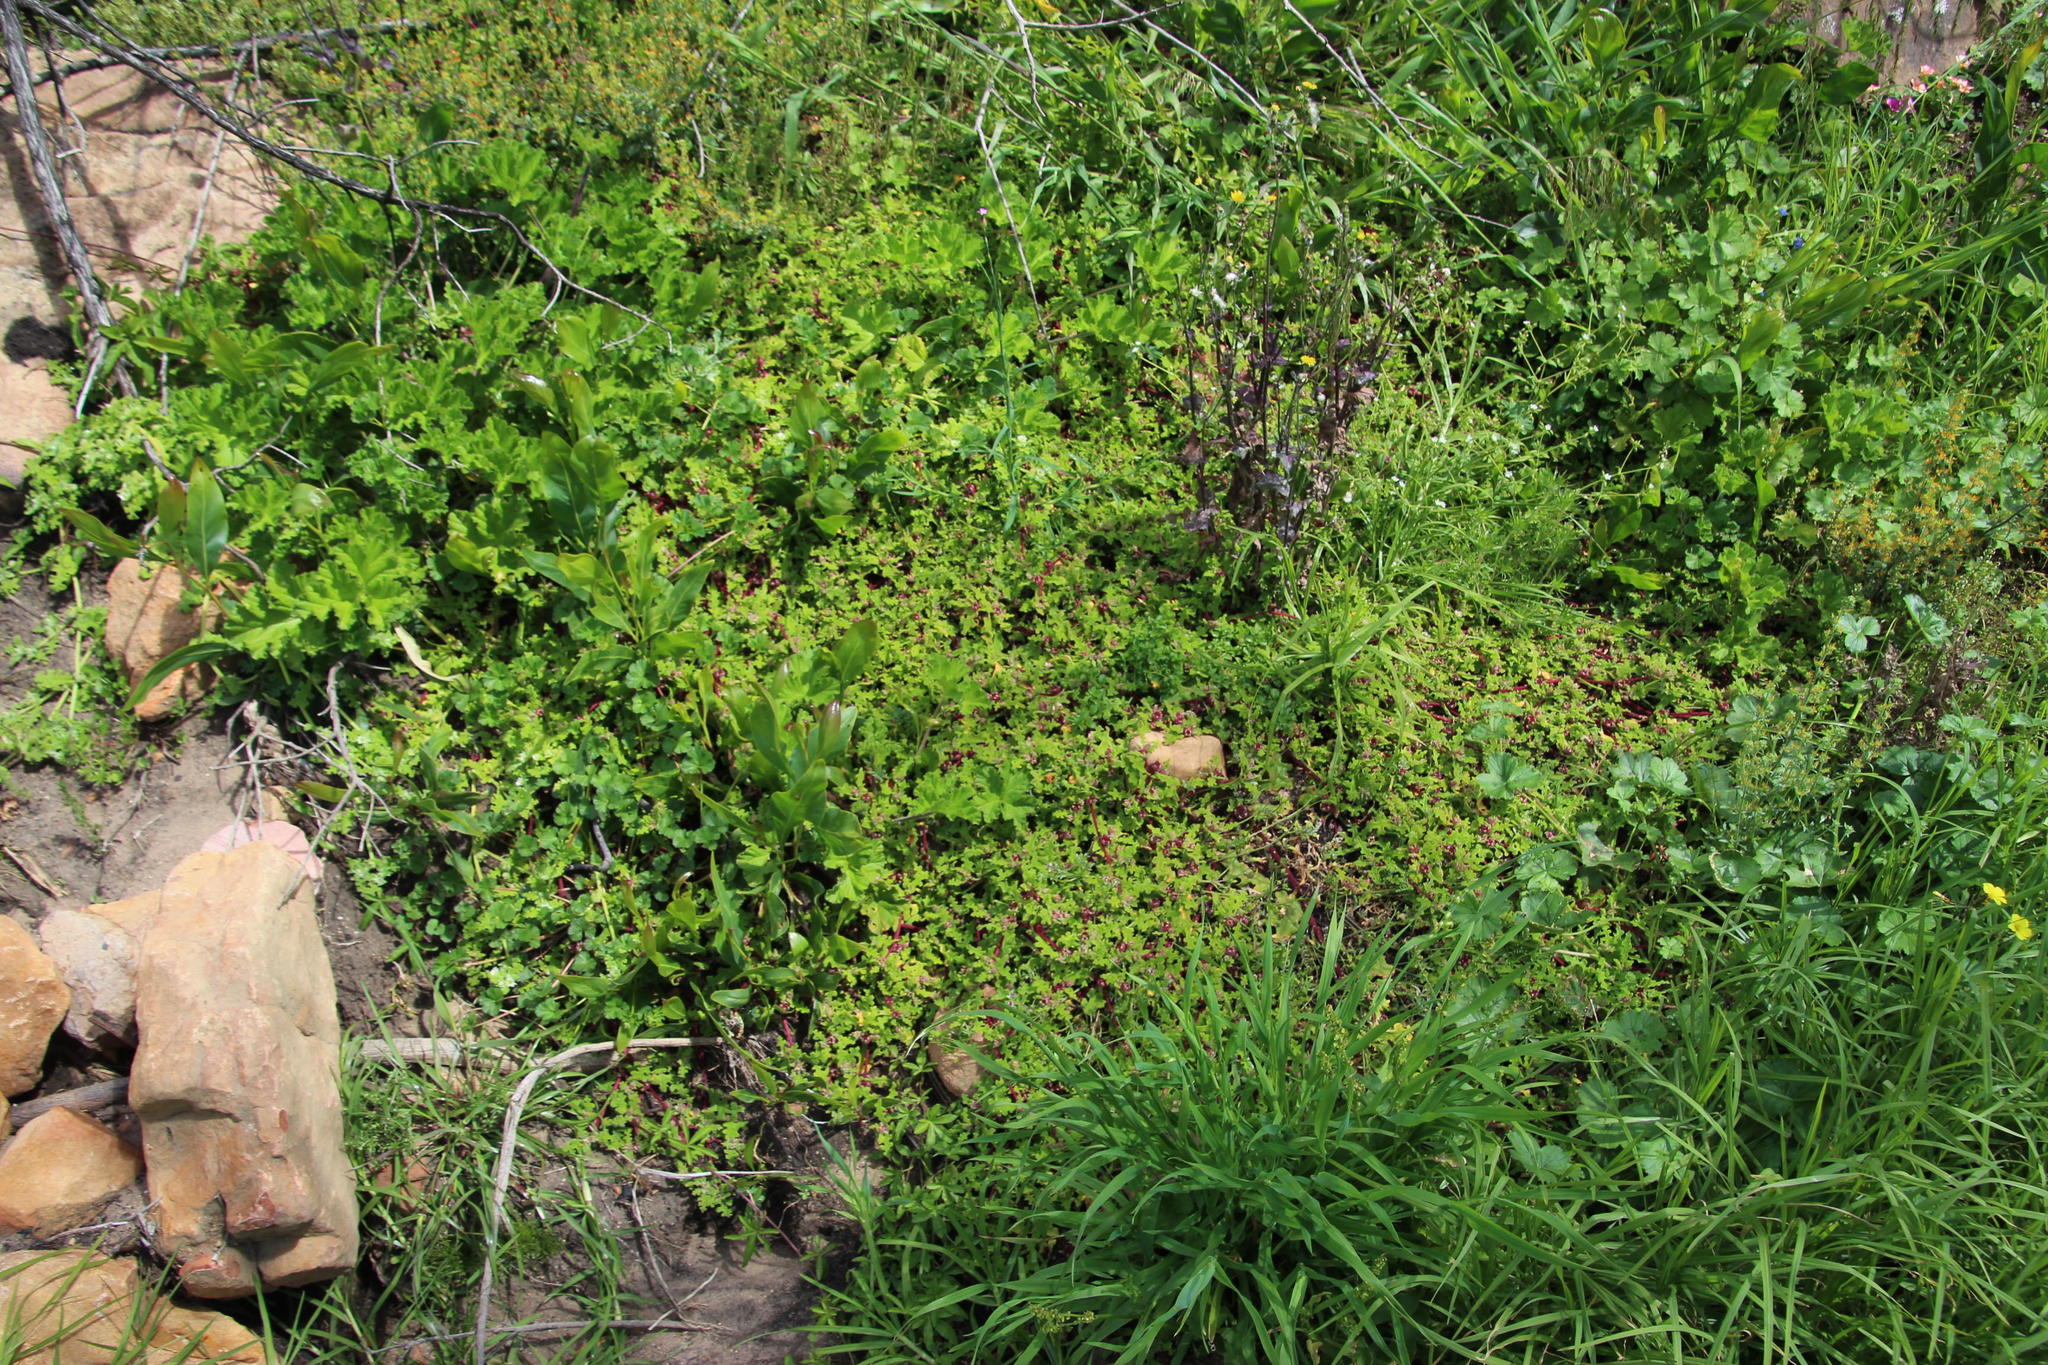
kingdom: Plantae
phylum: Tracheophyta
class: Magnoliopsida
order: Caryophyllales
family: Aizoaceae
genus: Cleretum
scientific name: Cleretum herrei
